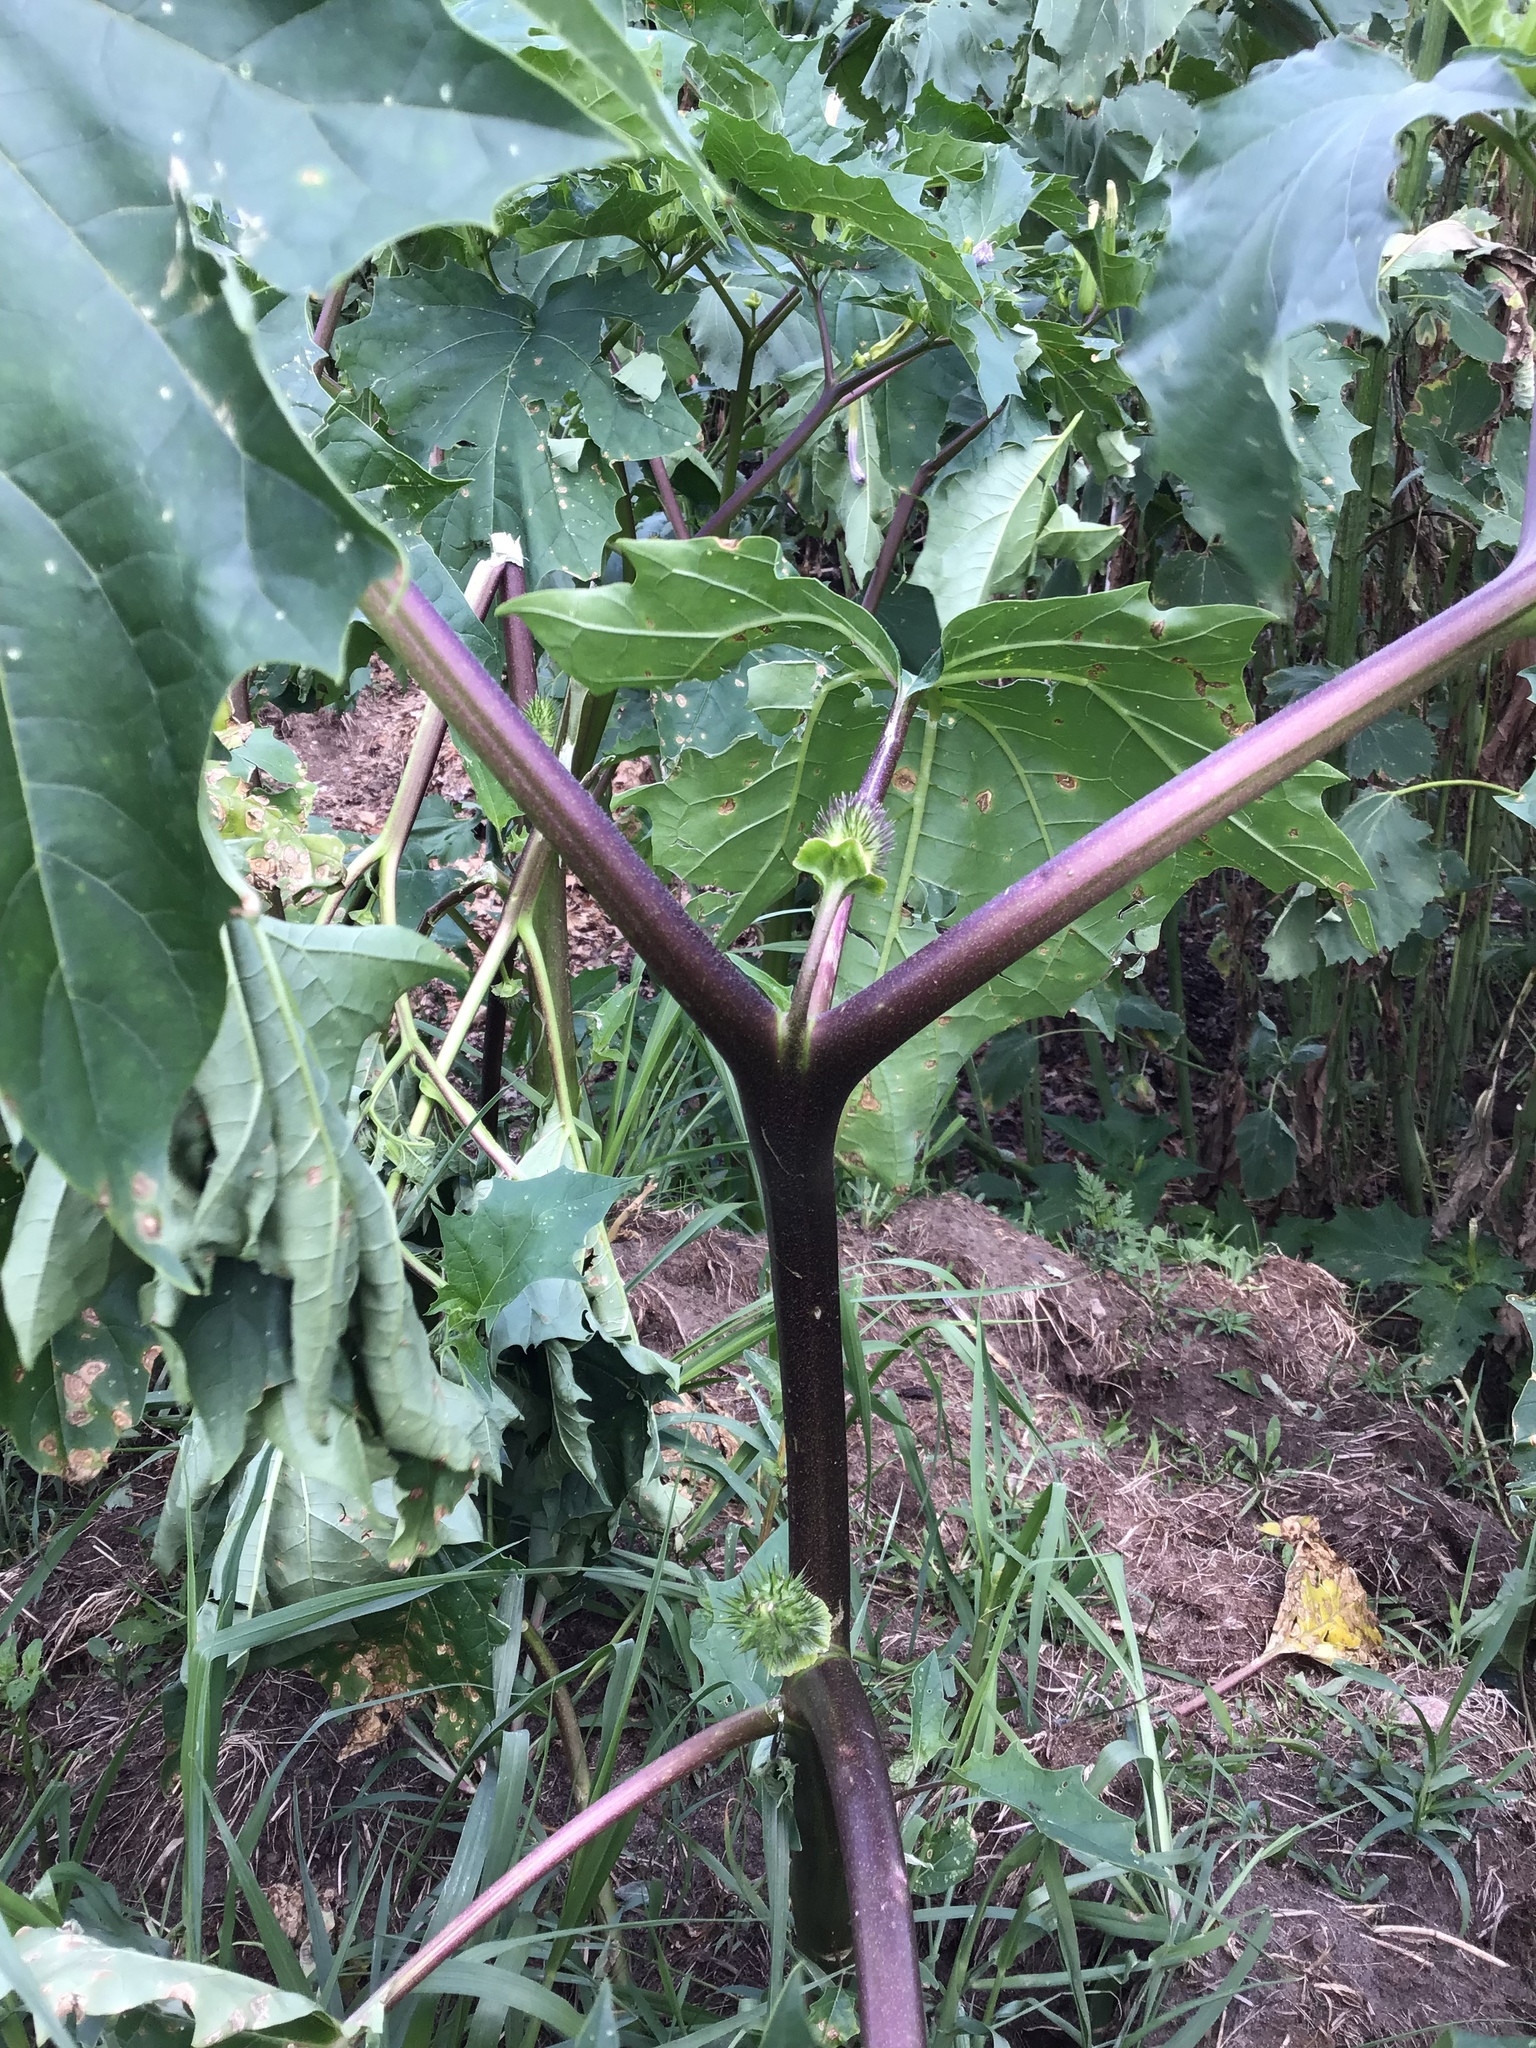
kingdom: Plantae
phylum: Tracheophyta
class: Magnoliopsida
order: Solanales
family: Solanaceae
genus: Datura
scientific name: Datura stramonium
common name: Thorn-apple
